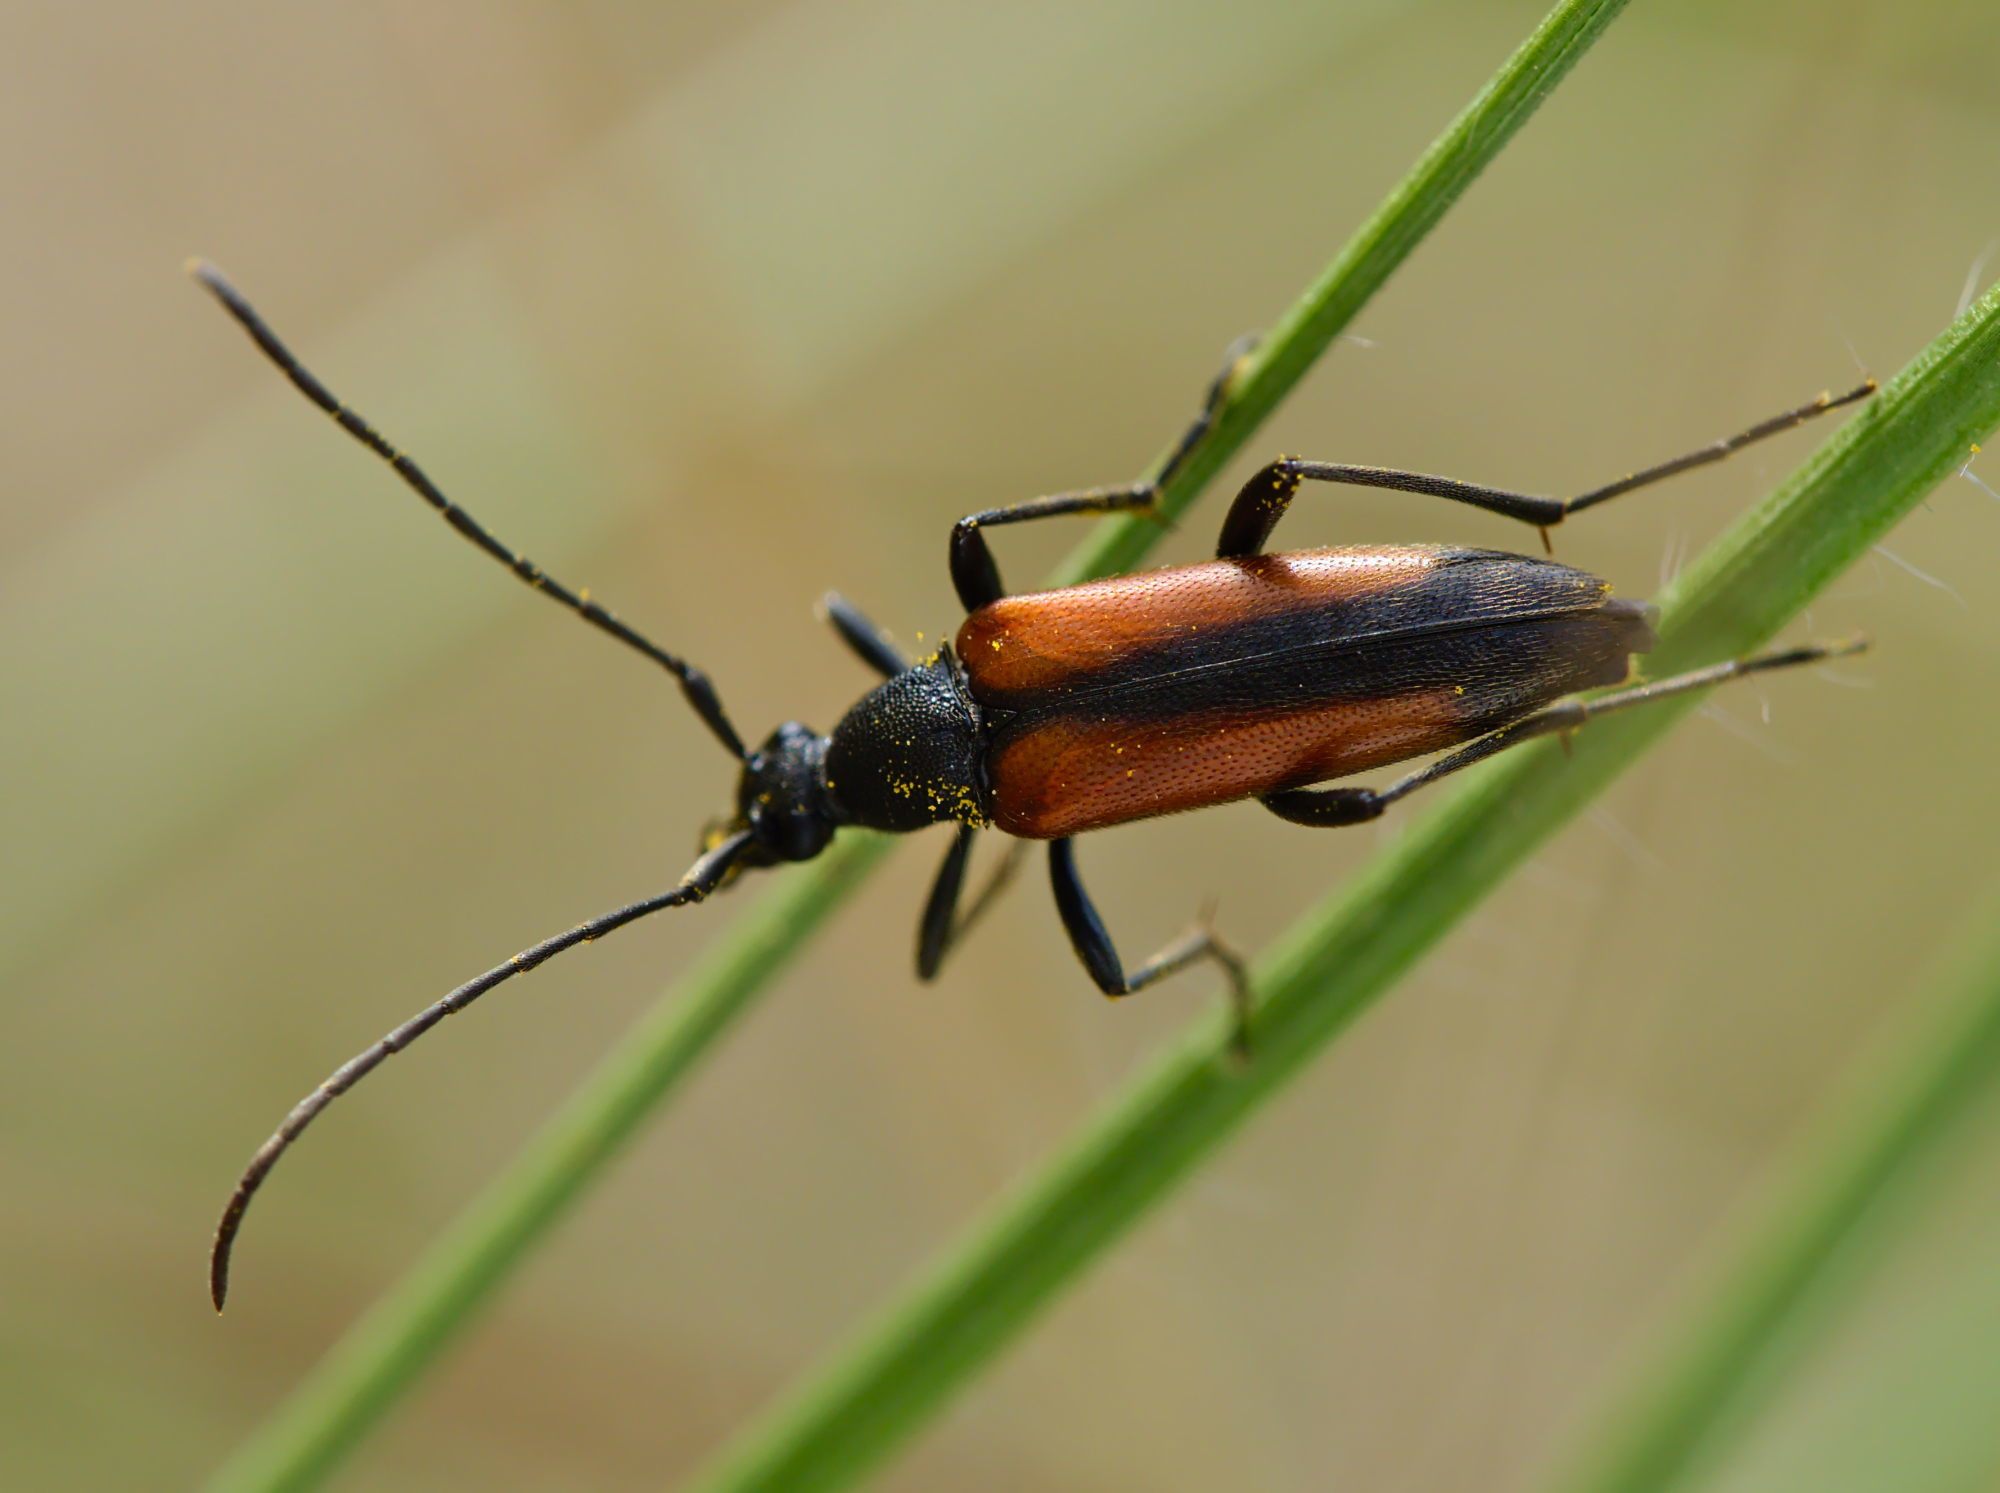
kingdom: Animalia
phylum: Arthropoda
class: Insecta
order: Coleoptera
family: Cerambycidae
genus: Stenurella
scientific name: Stenurella melanura
